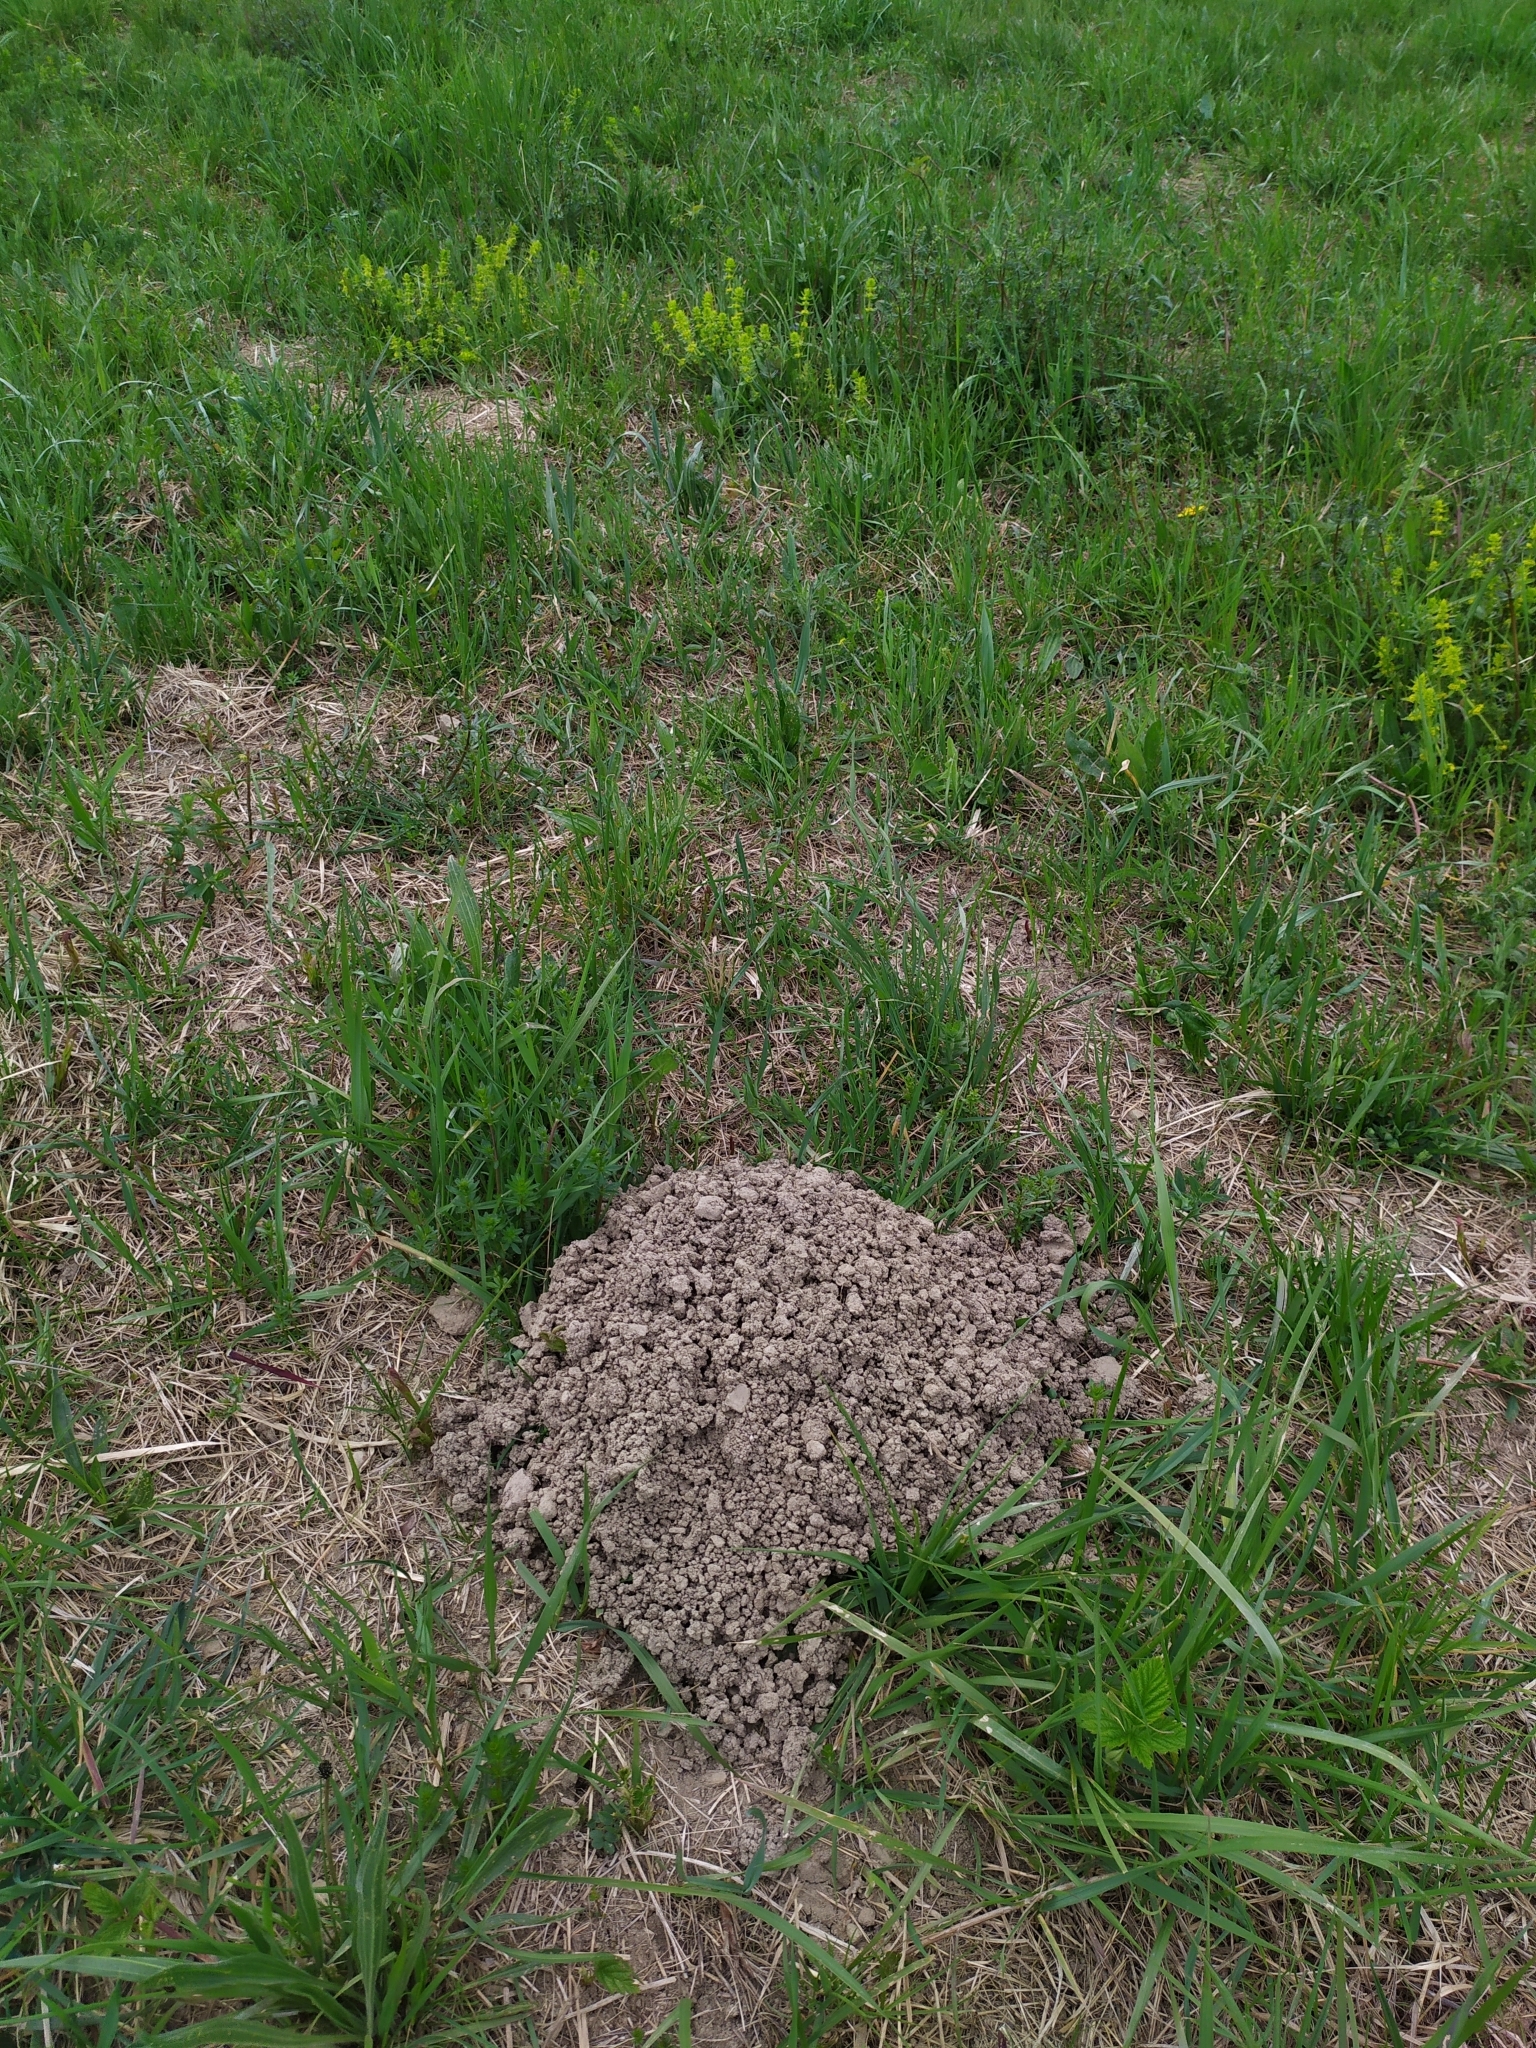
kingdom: Animalia
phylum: Chordata
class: Mammalia
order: Soricomorpha
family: Talpidae
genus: Talpa
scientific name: Talpa europaea
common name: European mole
